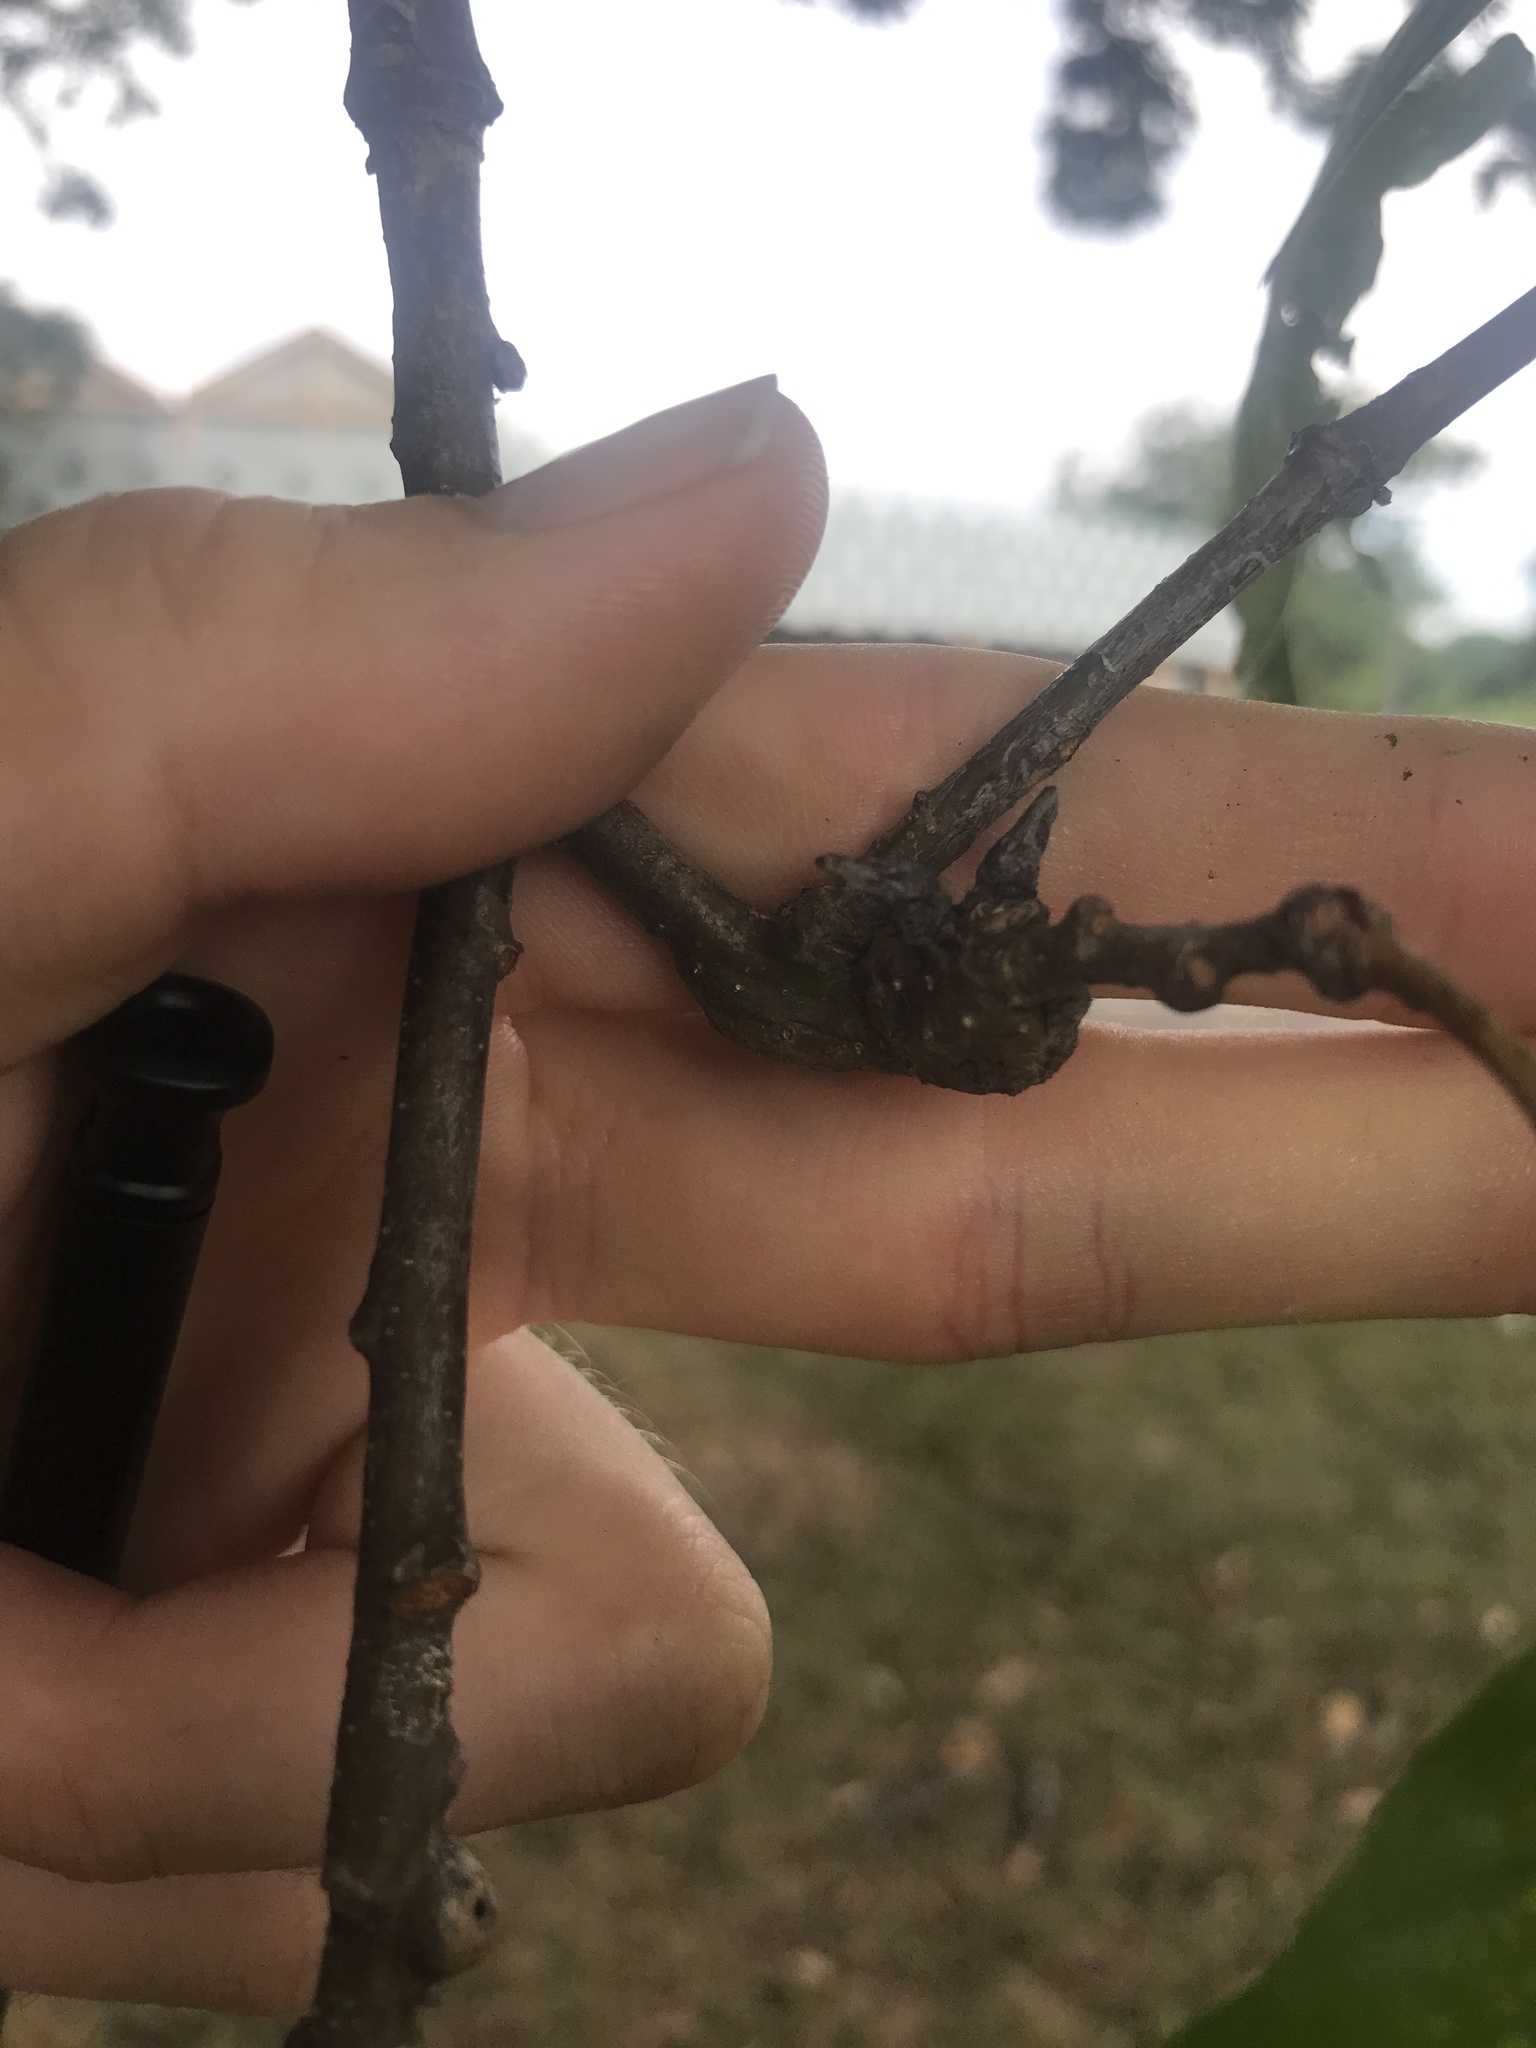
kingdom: Animalia
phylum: Arthropoda
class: Insecta
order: Hymenoptera
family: Cynipidae
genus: Neuroterus
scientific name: Neuroterus quercusbaccarum
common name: Common spangle gall
